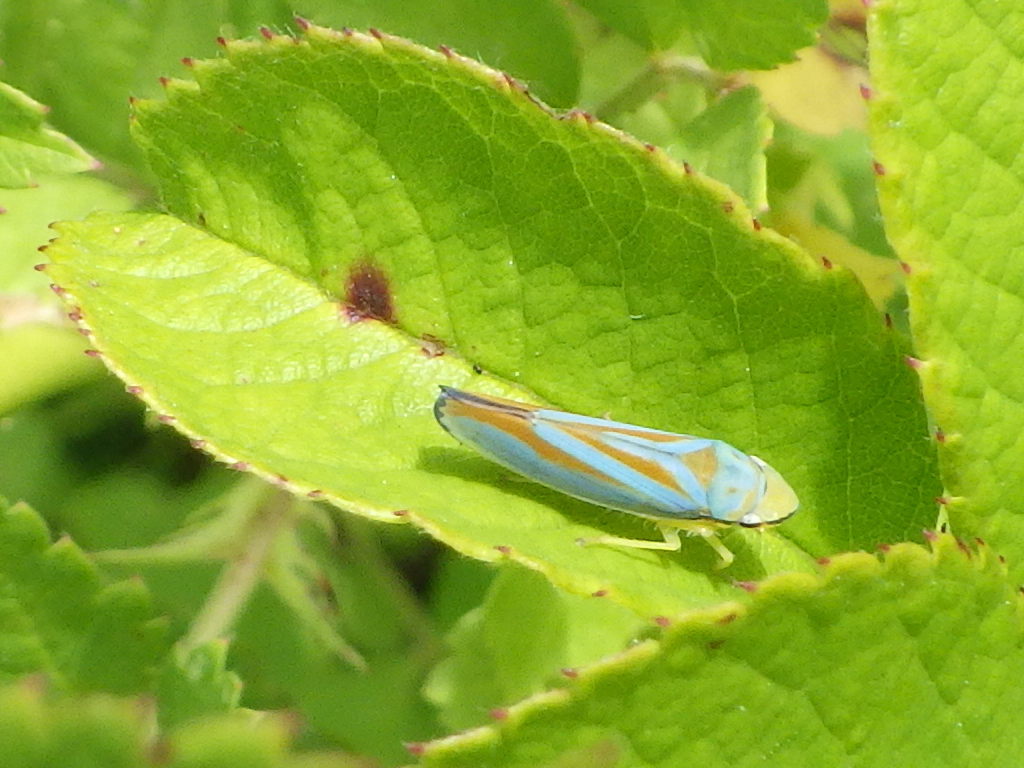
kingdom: Animalia
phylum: Arthropoda
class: Insecta
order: Hemiptera
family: Cicadellidae
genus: Graphocephala
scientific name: Graphocephala fennahi
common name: Rhododendron leafhopper
